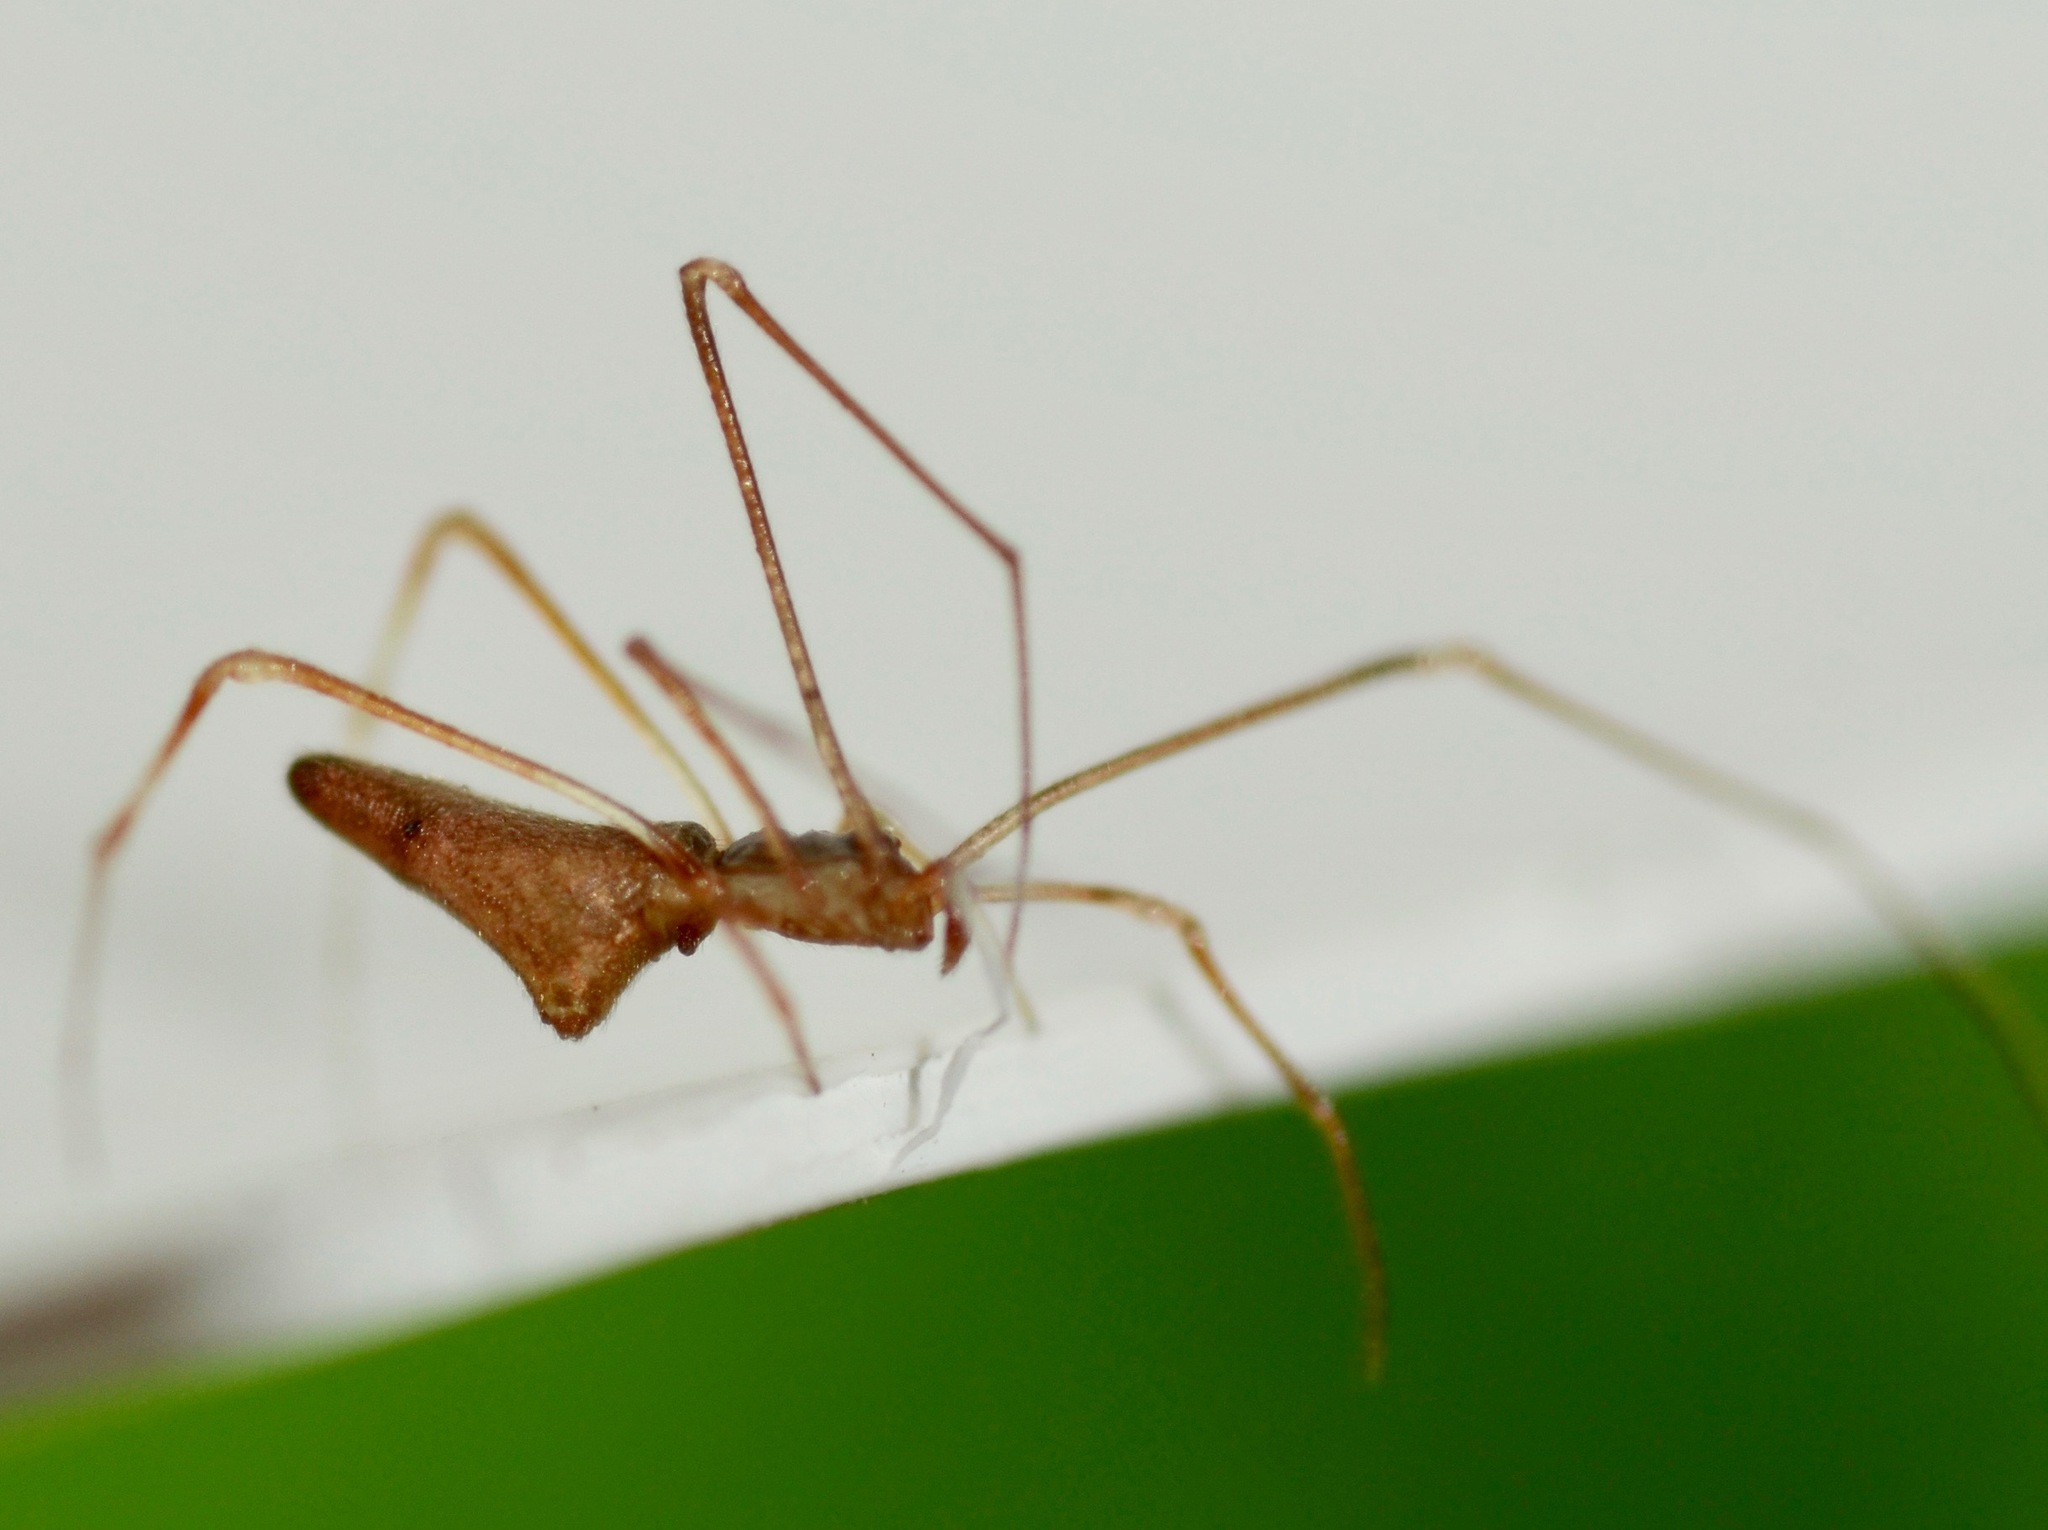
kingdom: Animalia
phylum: Arthropoda
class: Arachnida
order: Araneae
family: Theridiidae
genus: Rhomphaea
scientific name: Rhomphaea urquharti
